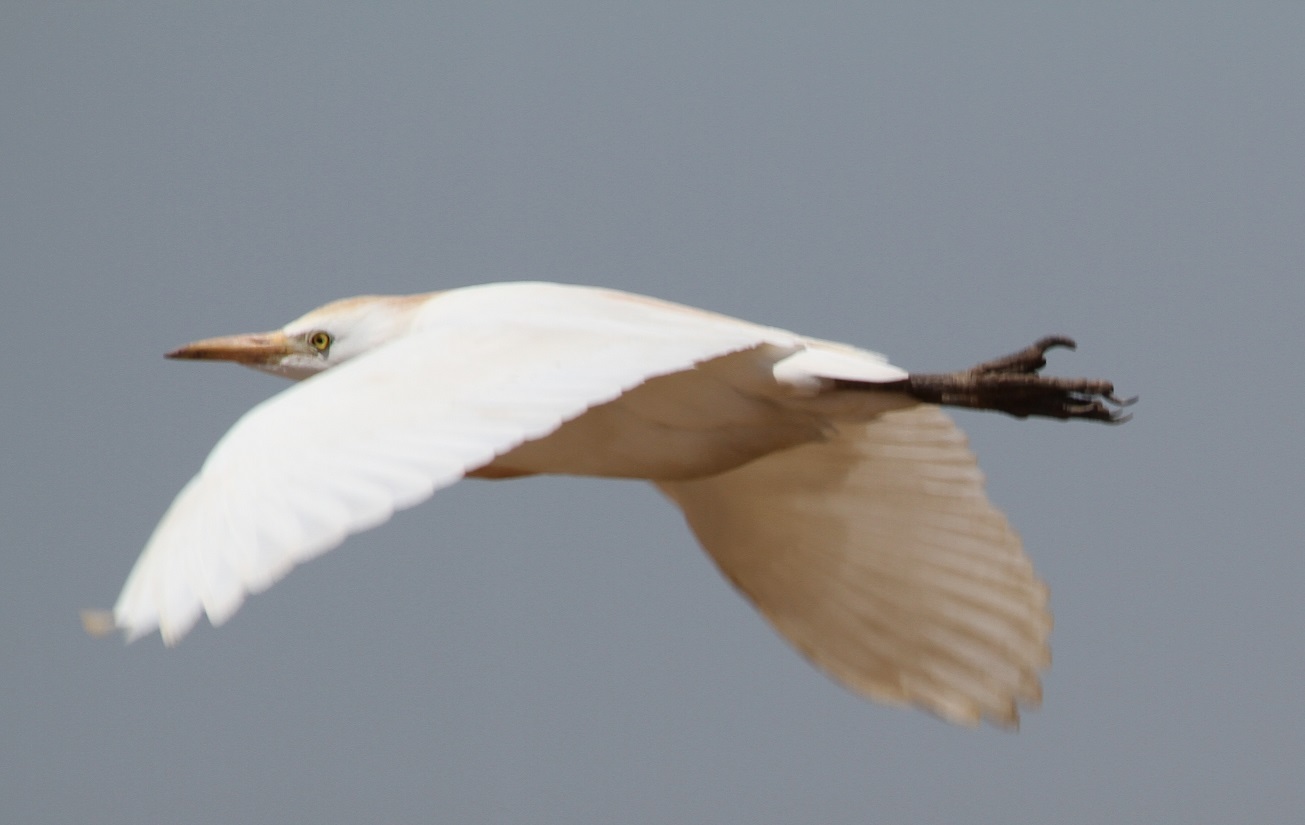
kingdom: Animalia
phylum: Chordata
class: Aves
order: Pelecaniformes
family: Ardeidae
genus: Bubulcus
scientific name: Bubulcus ibis
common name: Cattle egret
